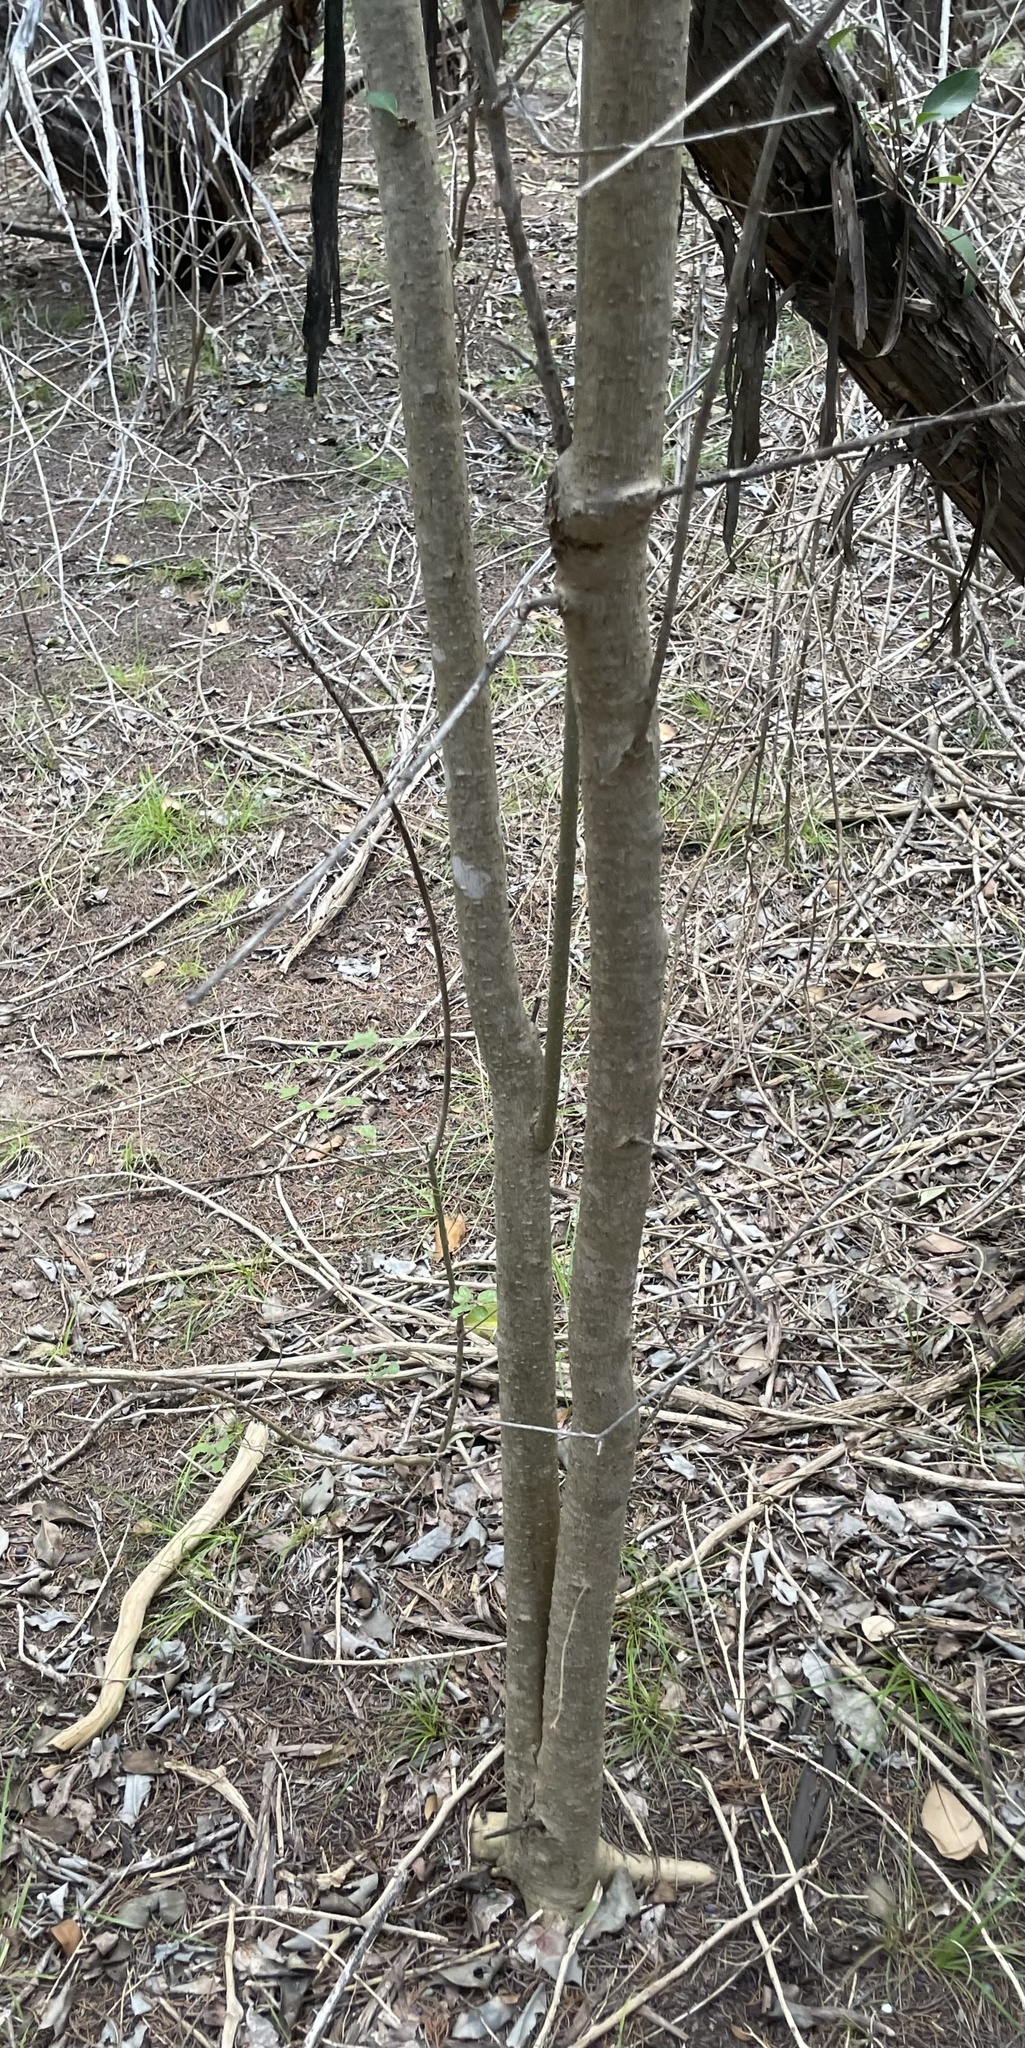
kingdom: Plantae
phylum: Tracheophyta
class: Magnoliopsida
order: Lamiales
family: Oleaceae
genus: Ligustrum
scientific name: Ligustrum lucidum
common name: Glossy privet
